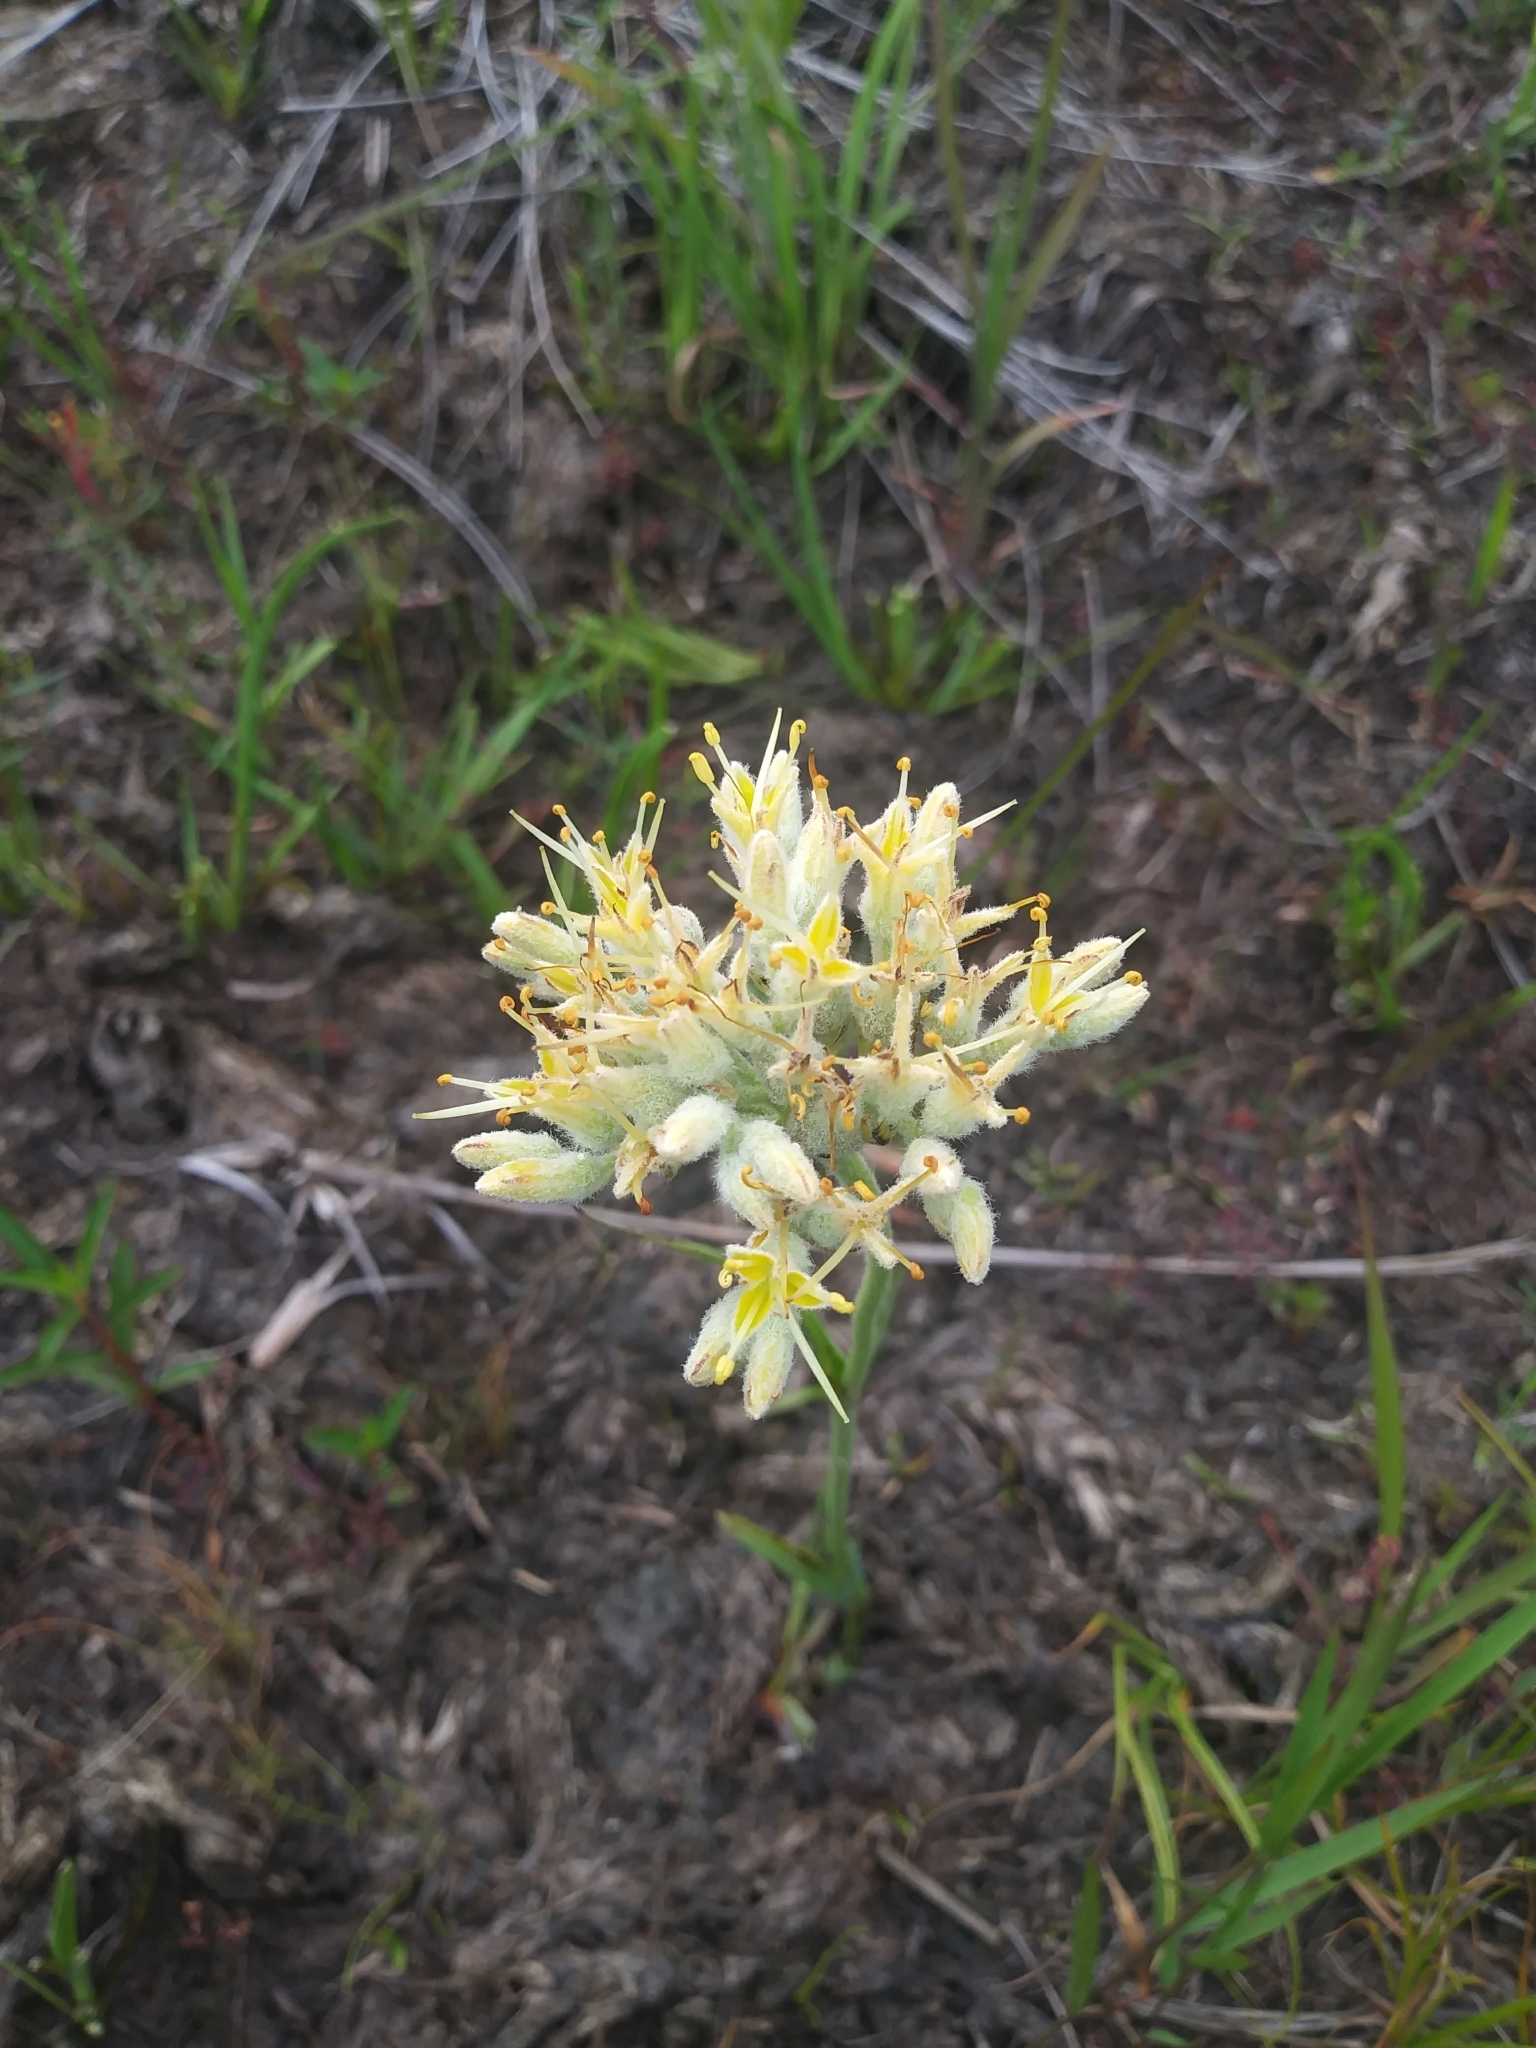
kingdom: Plantae
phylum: Tracheophyta
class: Liliopsida
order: Commelinales
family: Haemodoraceae
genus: Lachnanthes
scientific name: Lachnanthes caroliana
